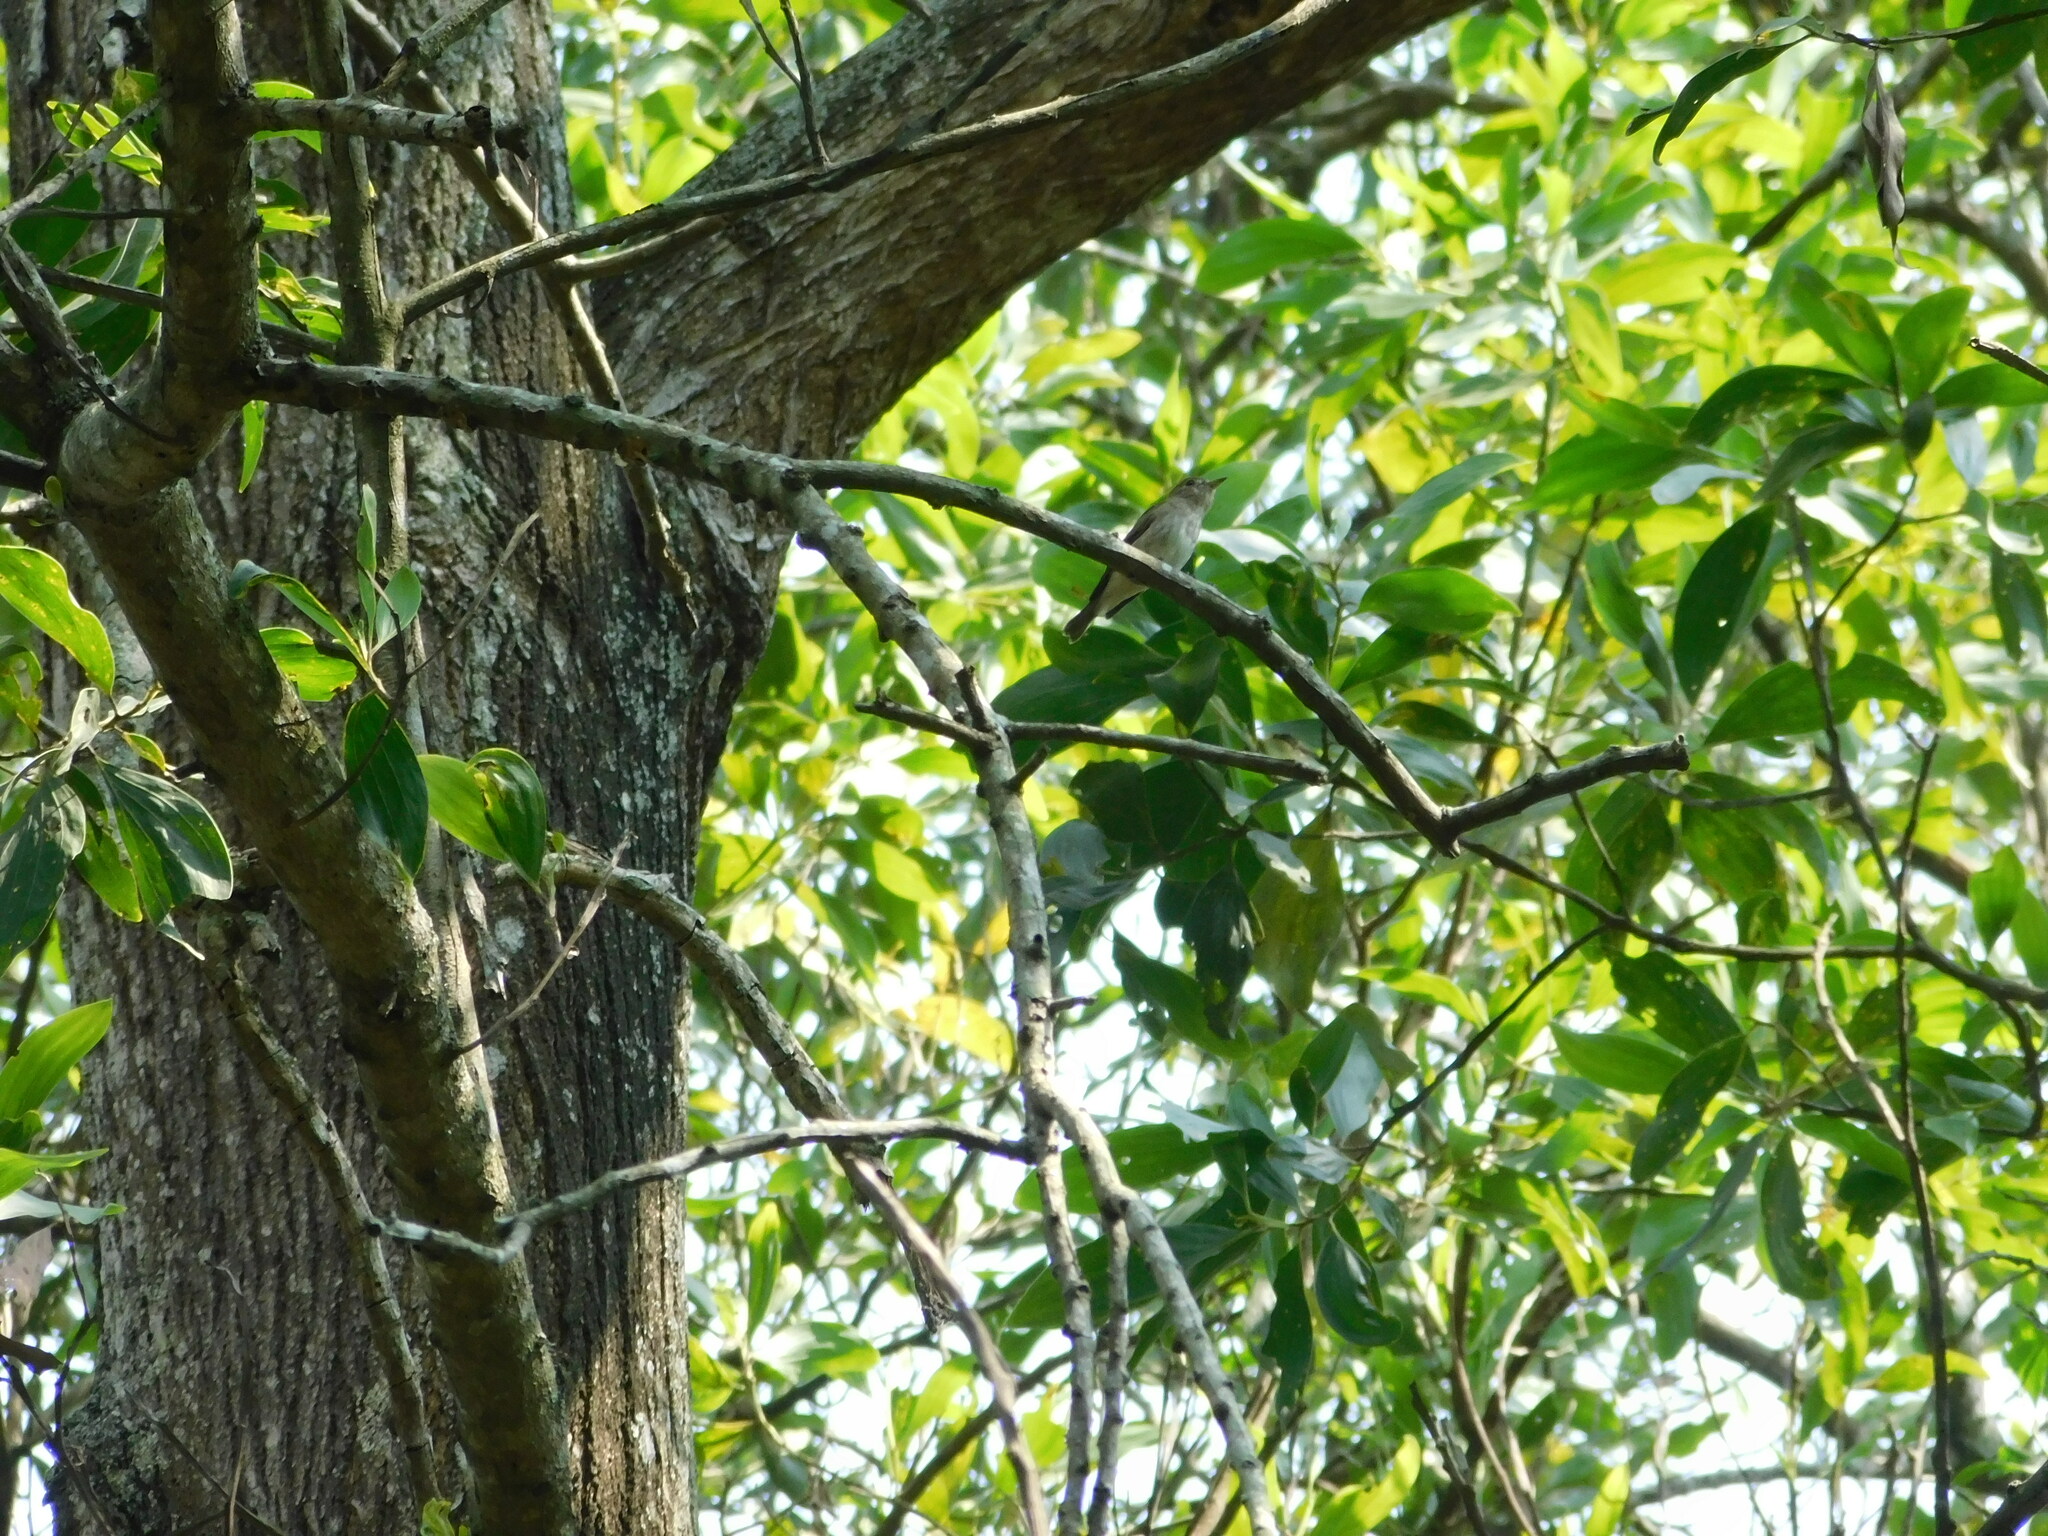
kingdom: Animalia
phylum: Chordata
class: Aves
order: Passeriformes
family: Muscicapidae
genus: Muscicapa
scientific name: Muscicapa latirostris
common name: Asian brown flycatcher
